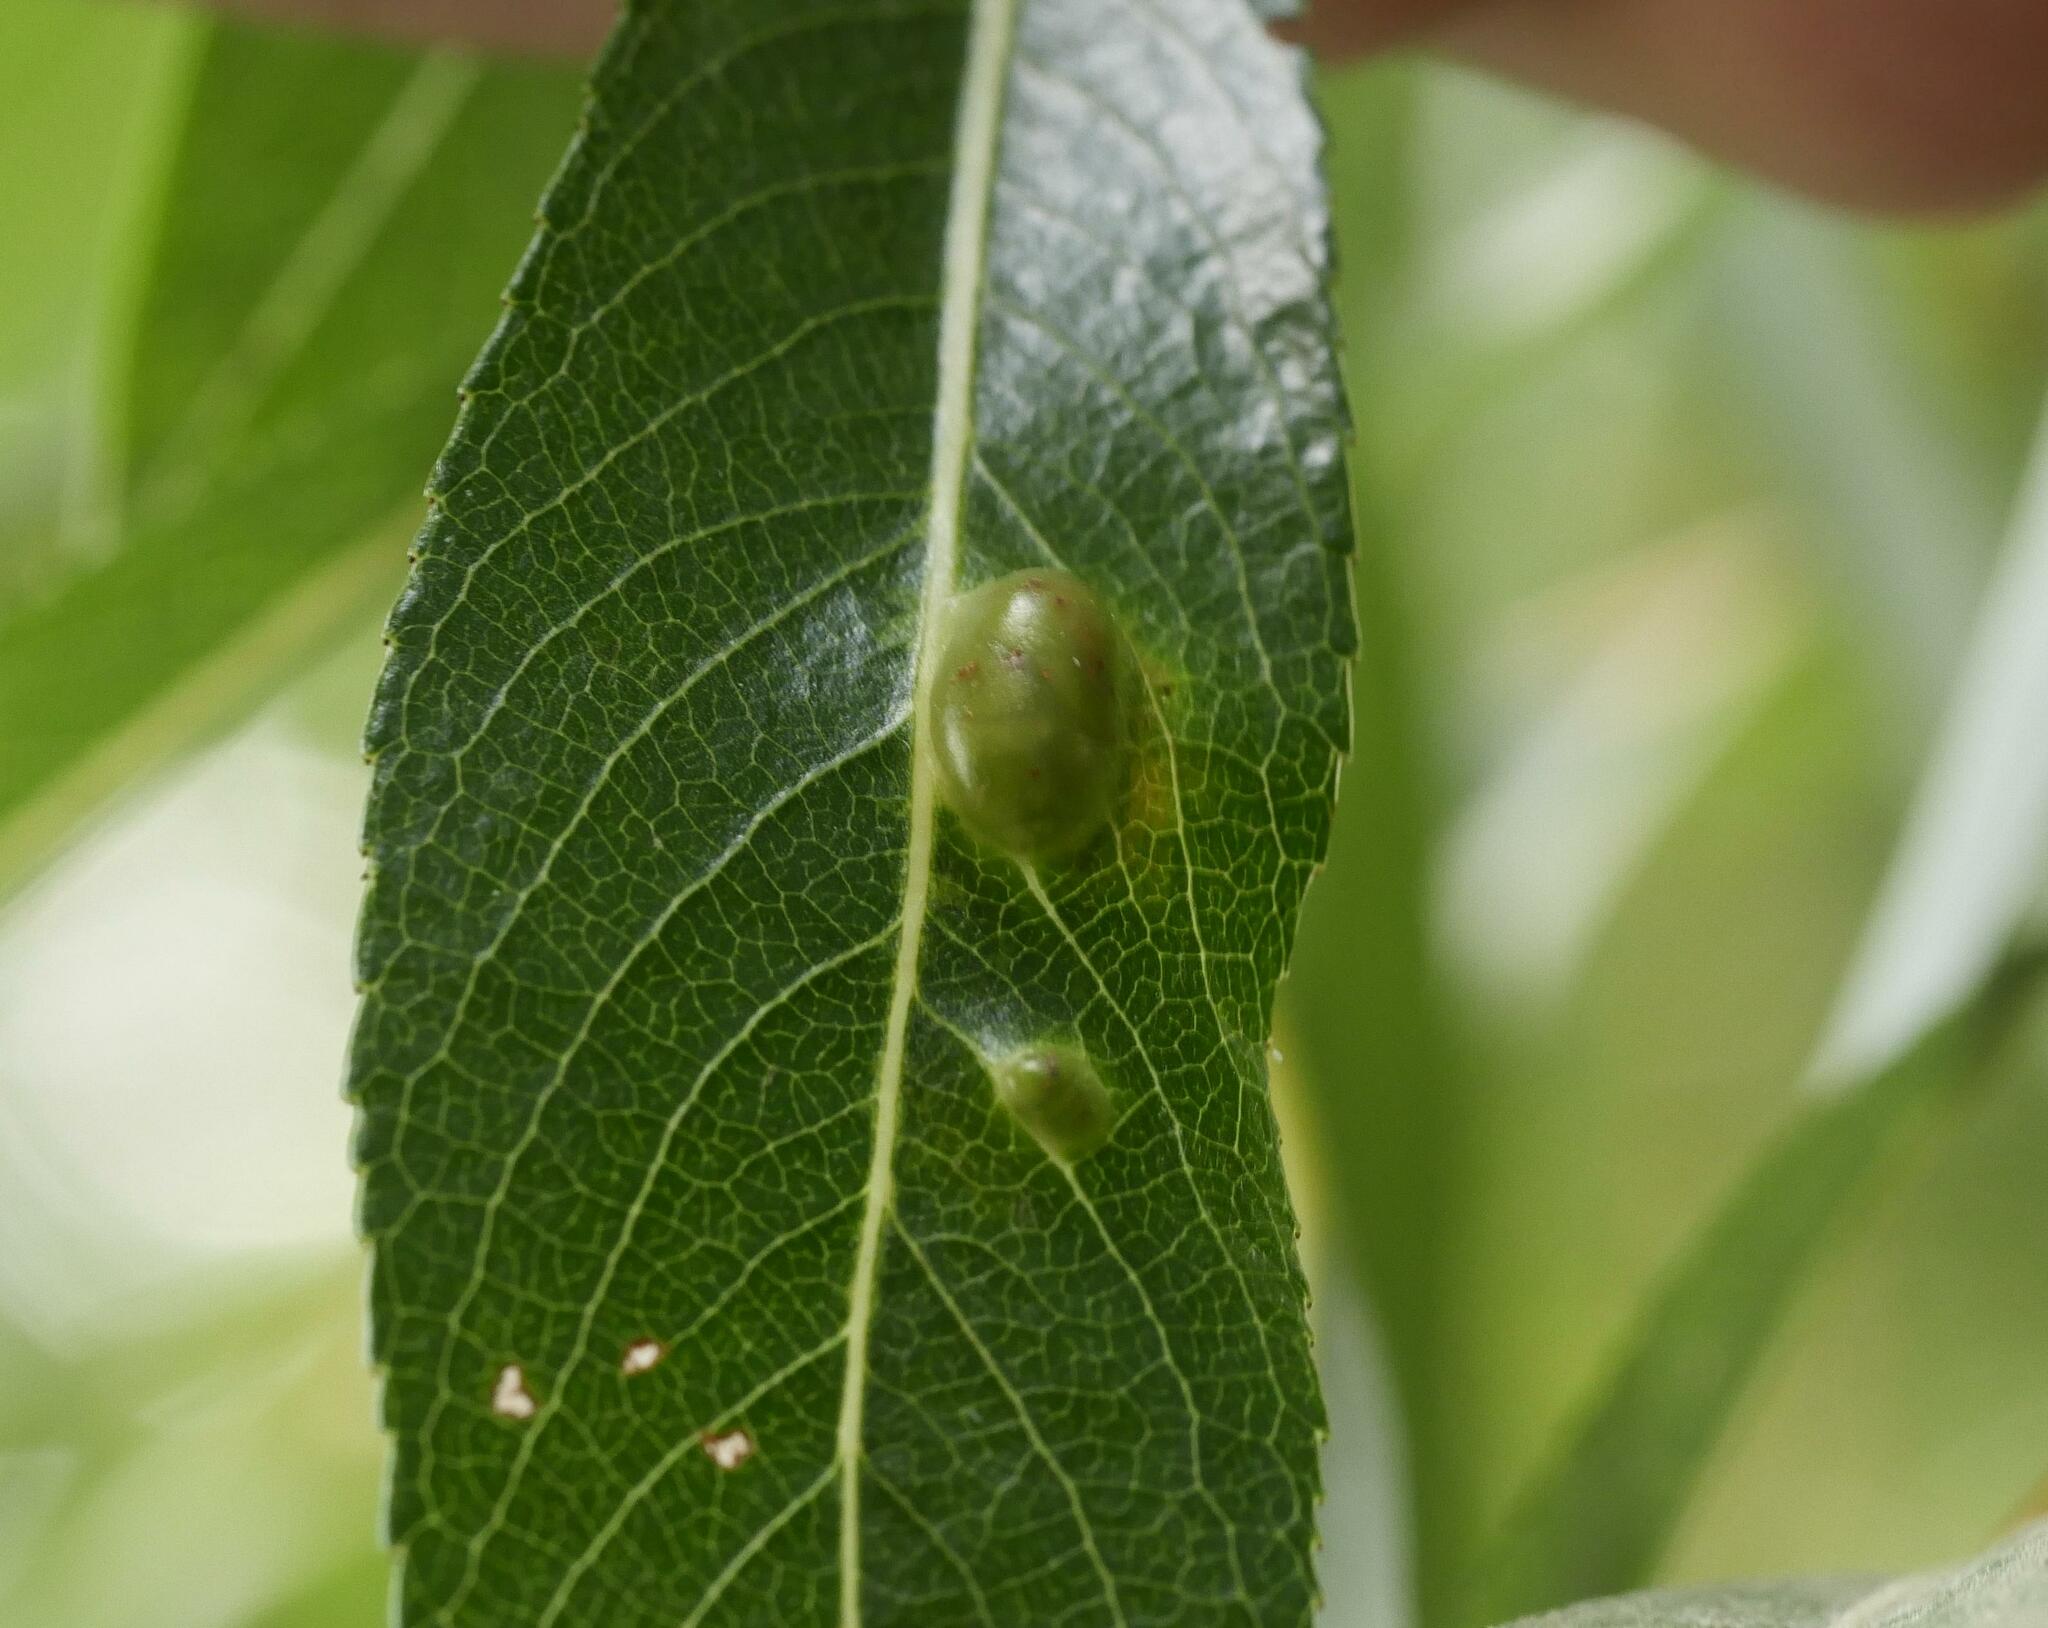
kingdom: Animalia
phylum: Arthropoda
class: Insecta
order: Hymenoptera
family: Tenthredinidae
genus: Pontania
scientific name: Pontania proxima
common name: Common sawfly
